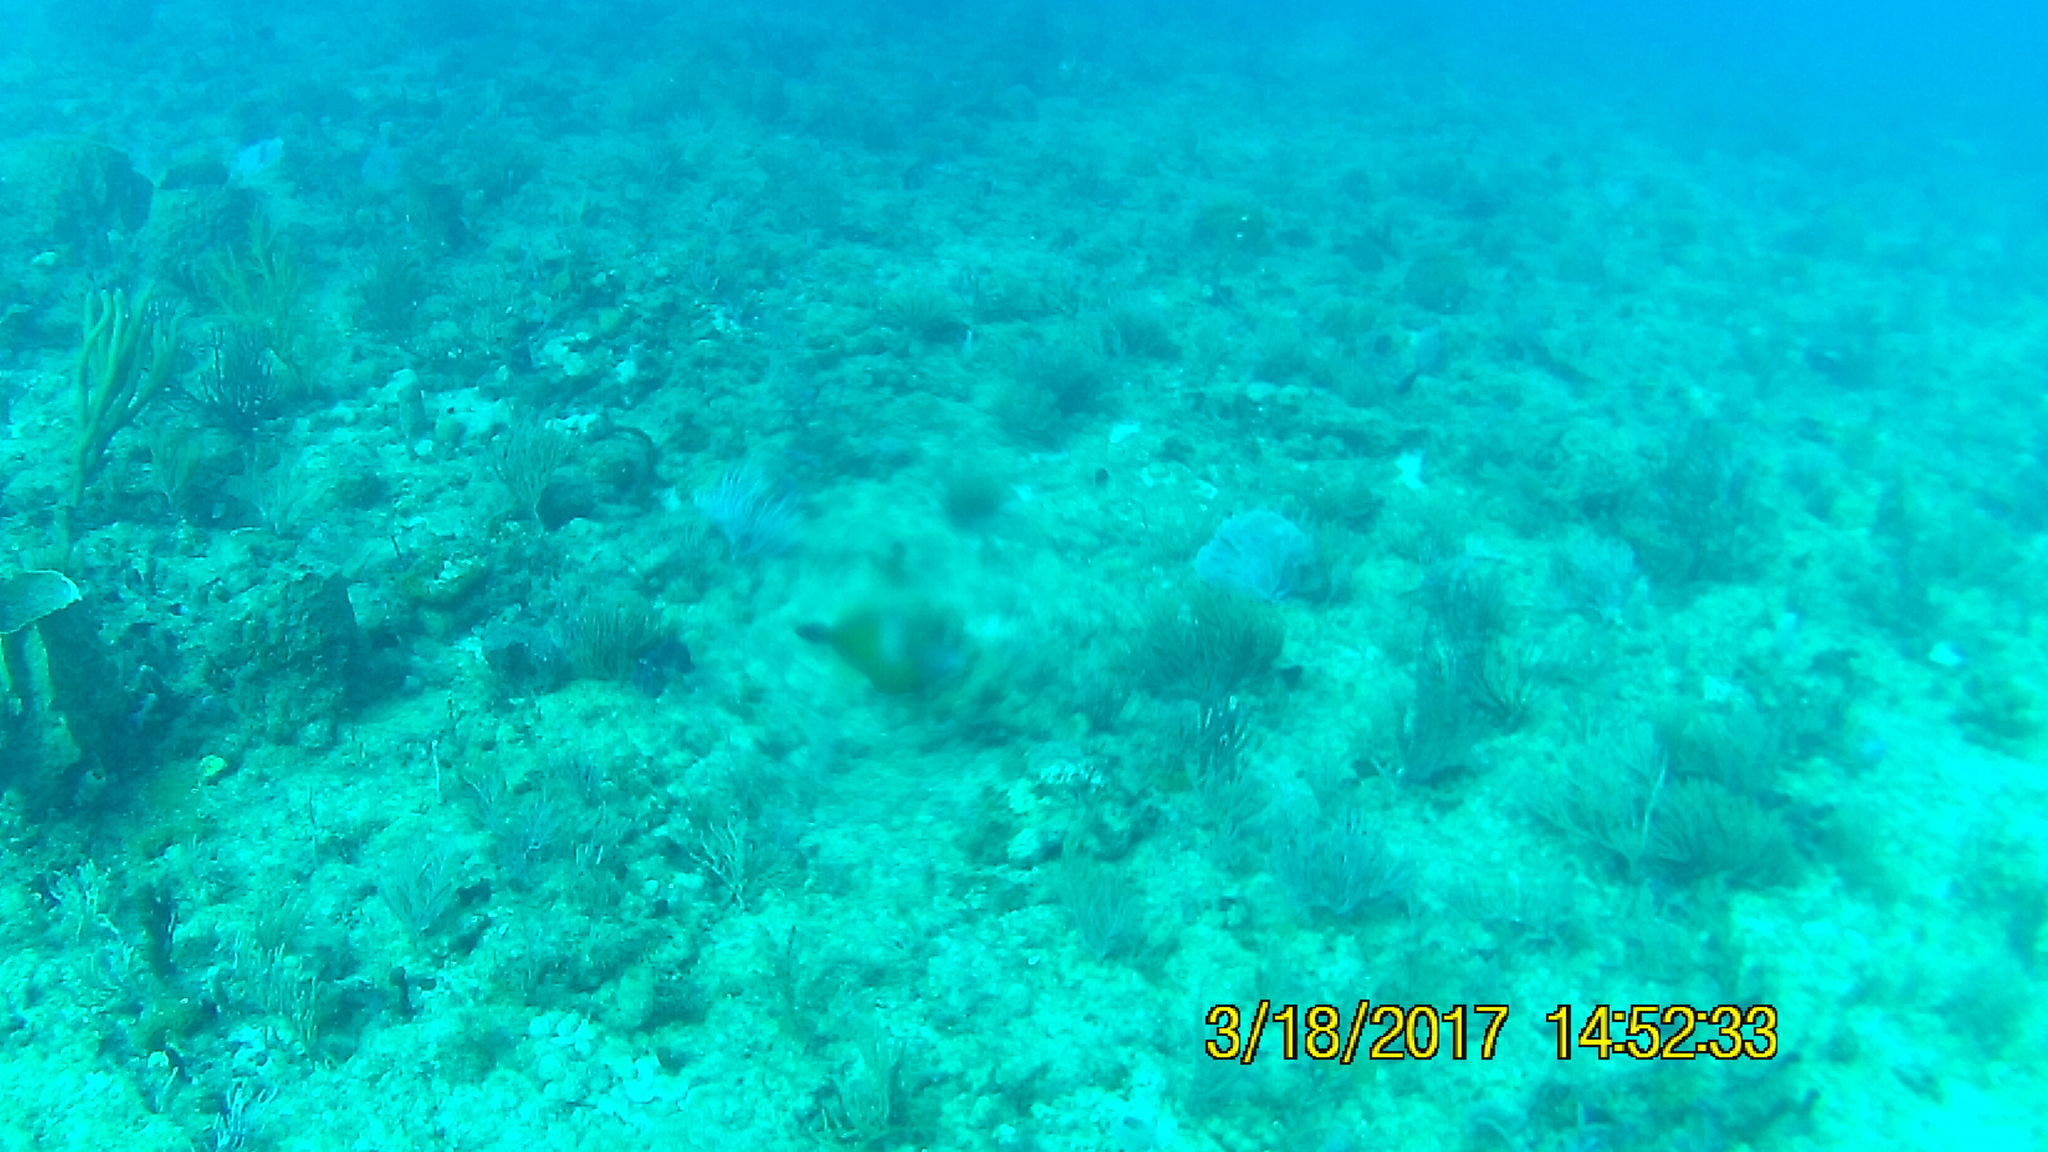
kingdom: Animalia
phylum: Chordata
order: Tetraodontiformes
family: Monacanthidae
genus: Cantherhines
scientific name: Cantherhines macrocerus
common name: Whitespotted filefish
